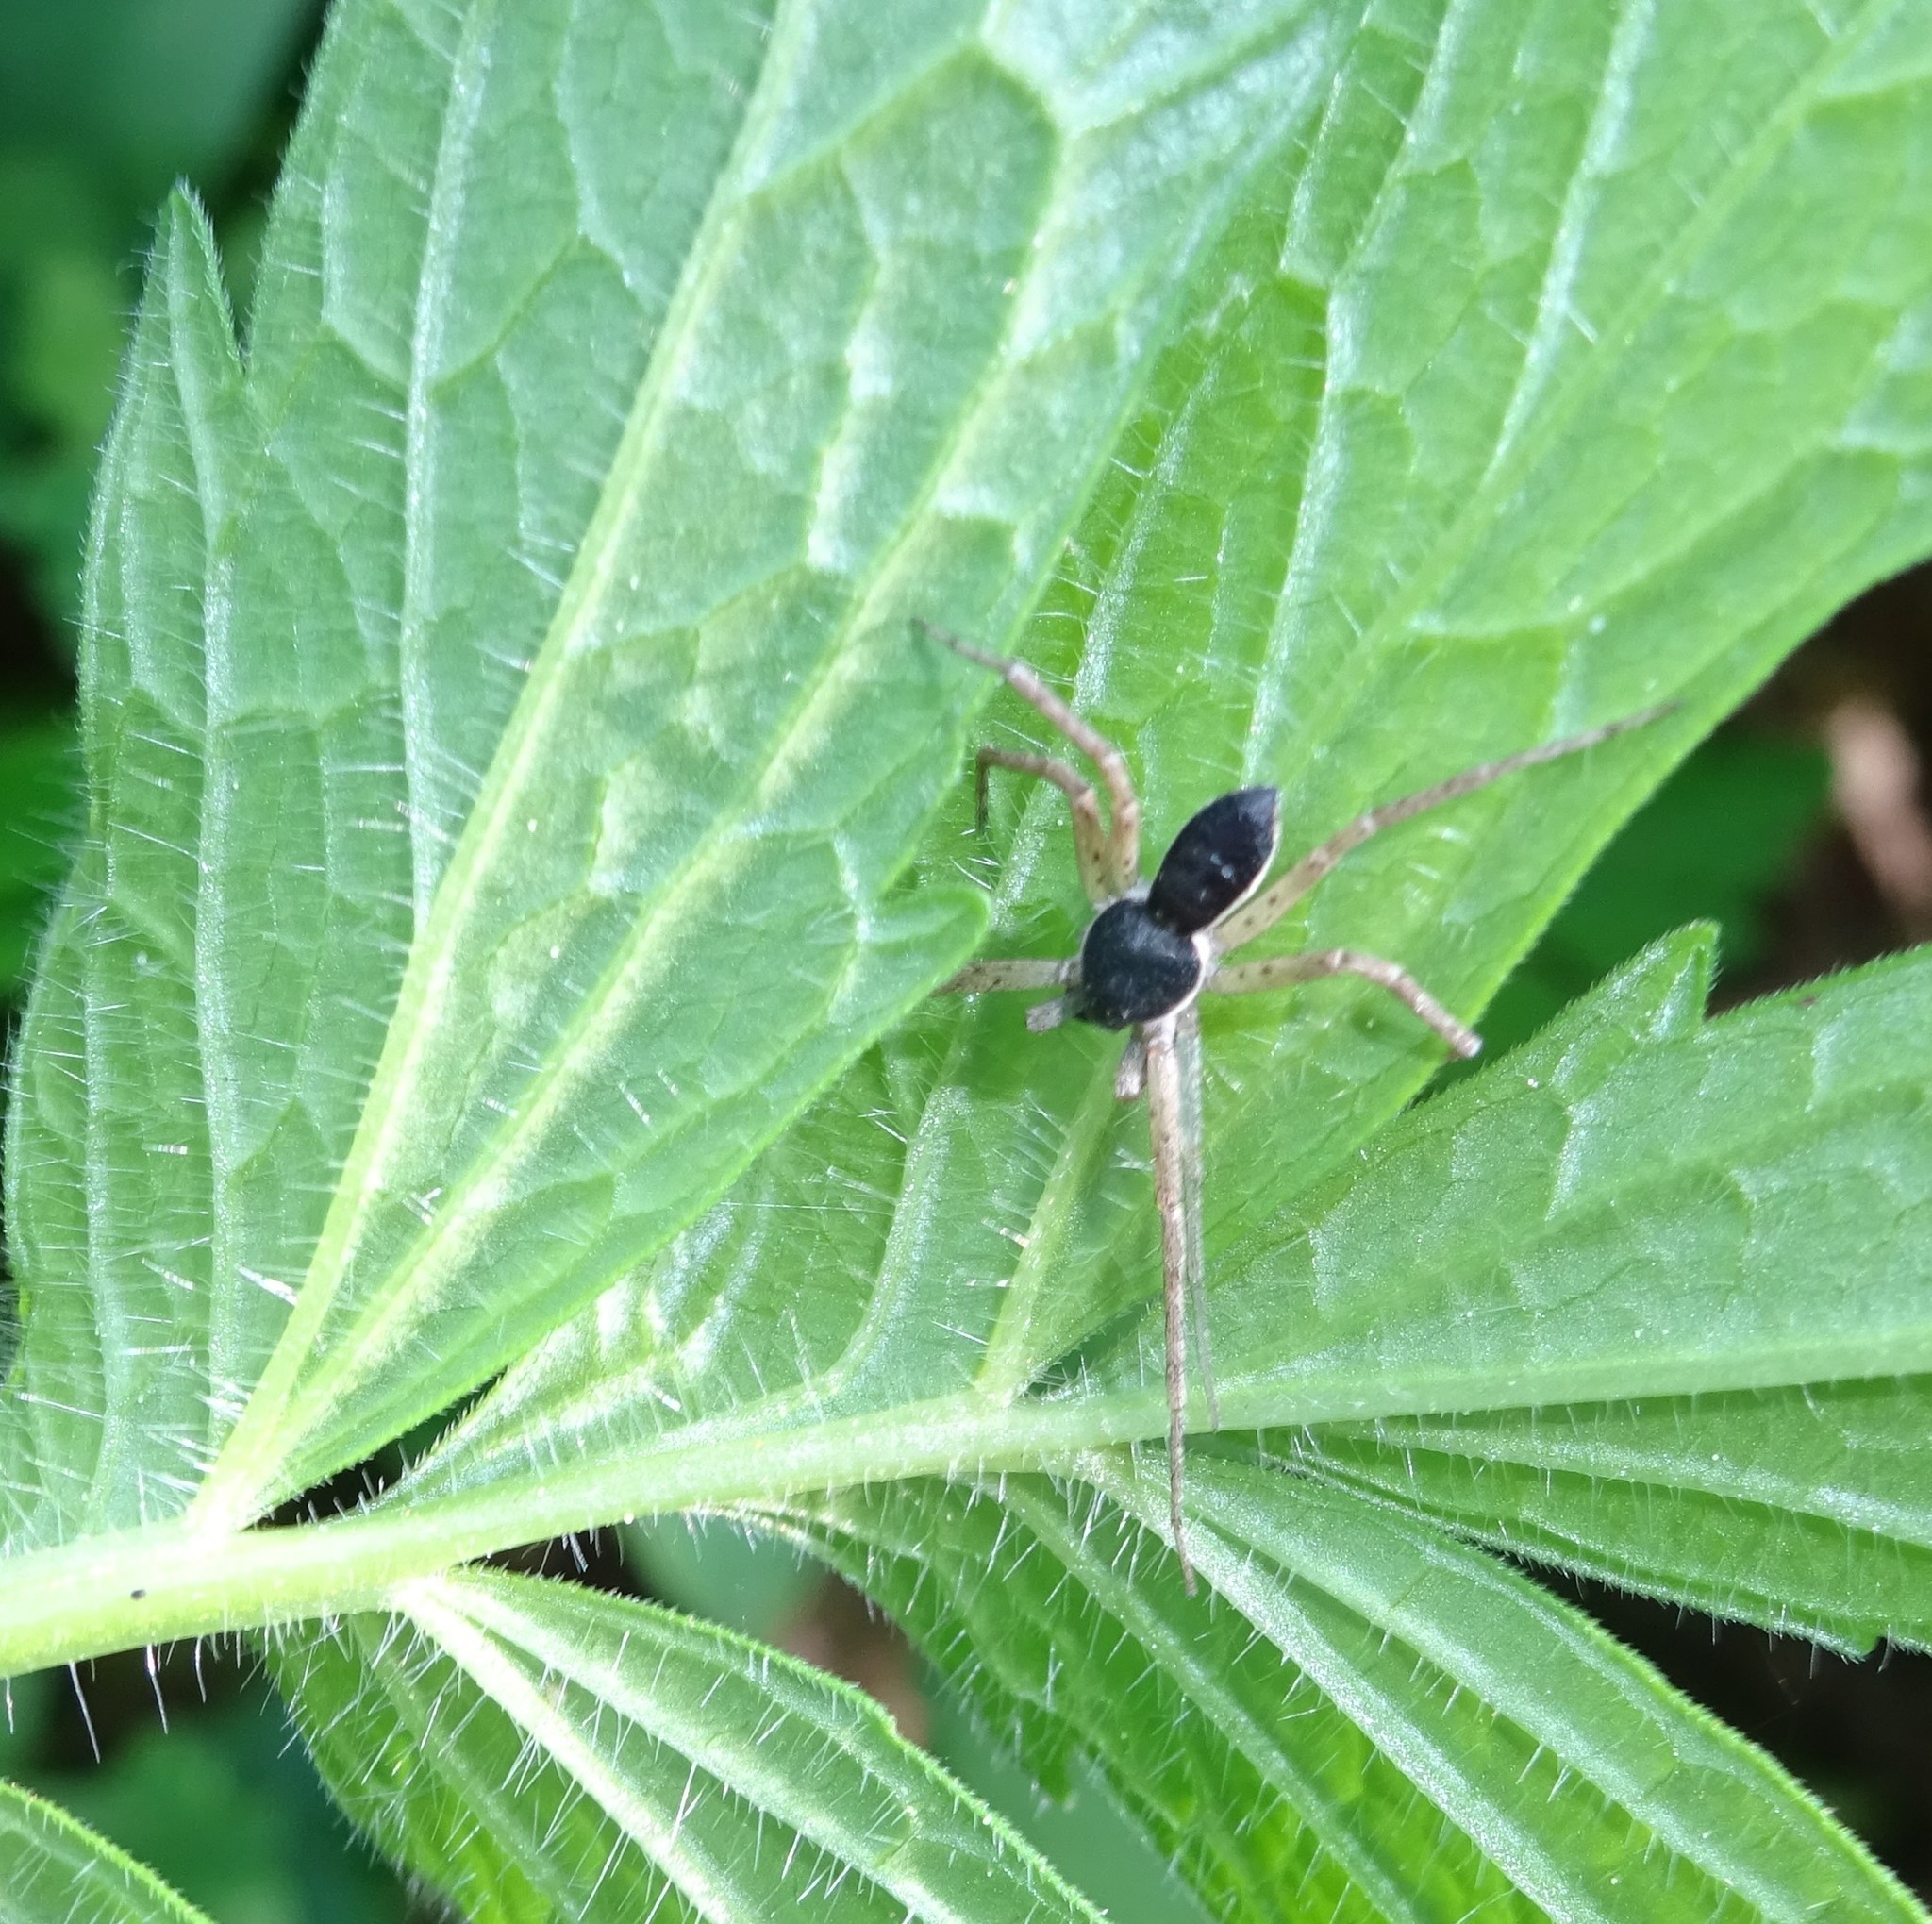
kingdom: Animalia
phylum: Arthropoda
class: Arachnida
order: Araneae
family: Philodromidae
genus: Philodromus
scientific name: Philodromus dispar
